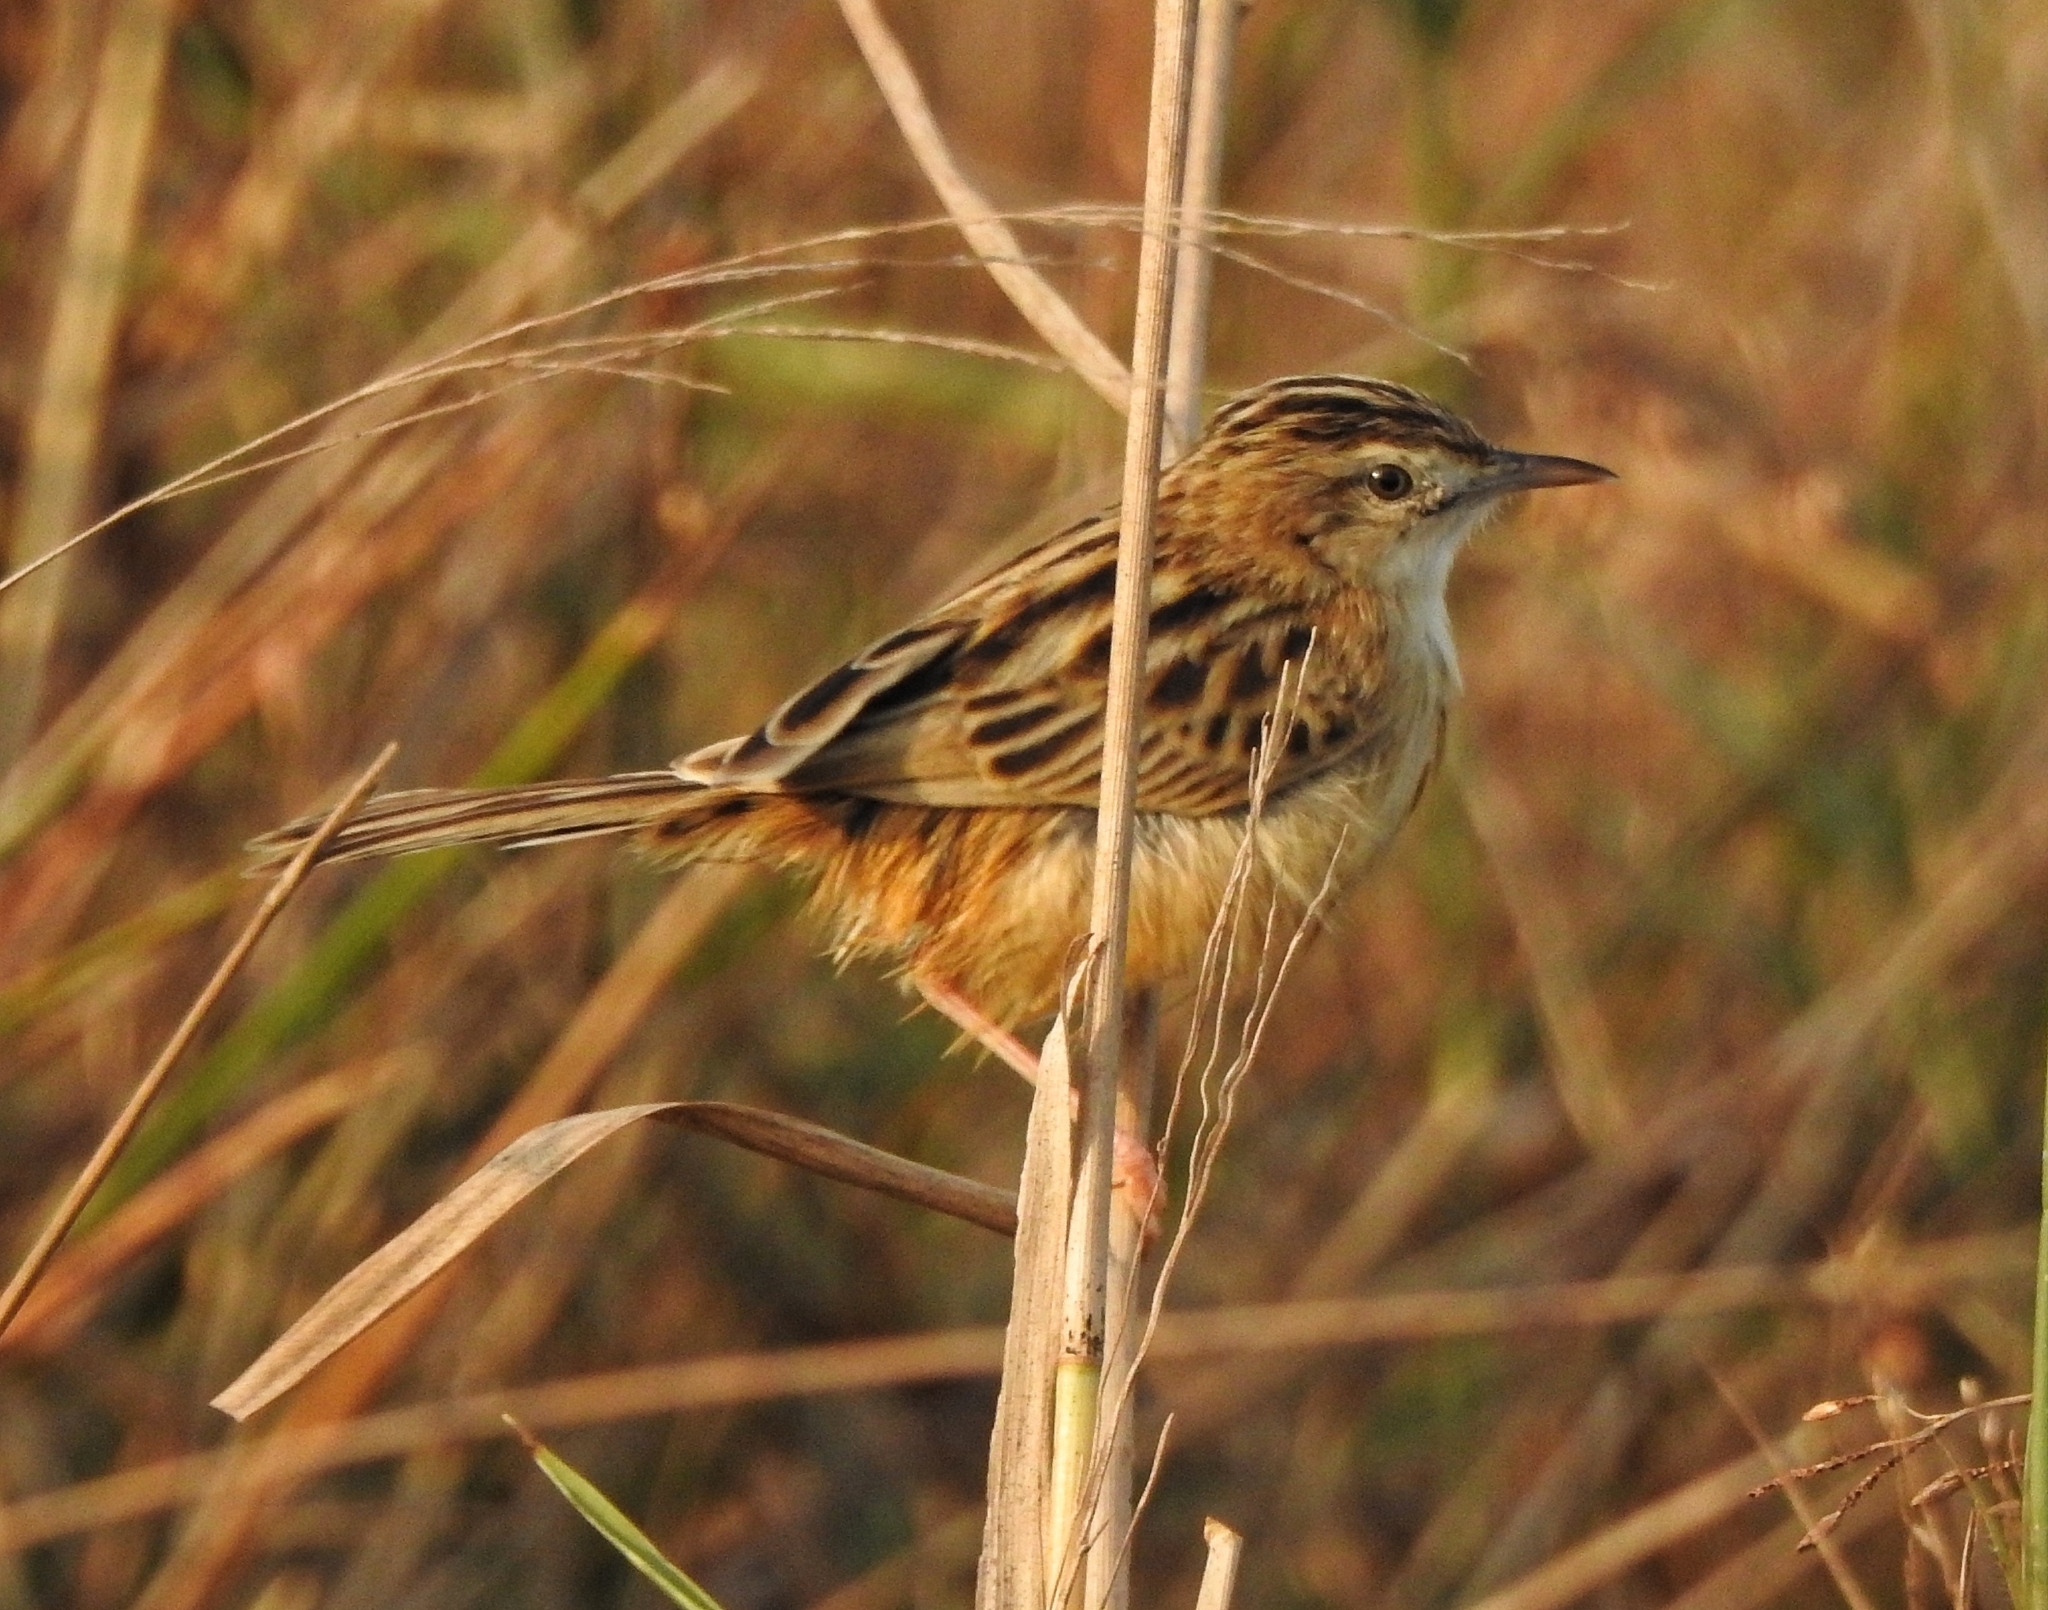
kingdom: Animalia
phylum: Chordata
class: Aves
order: Passeriformes
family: Cisticolidae
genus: Cisticola
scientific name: Cisticola juncidis
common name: Zitting cisticola
